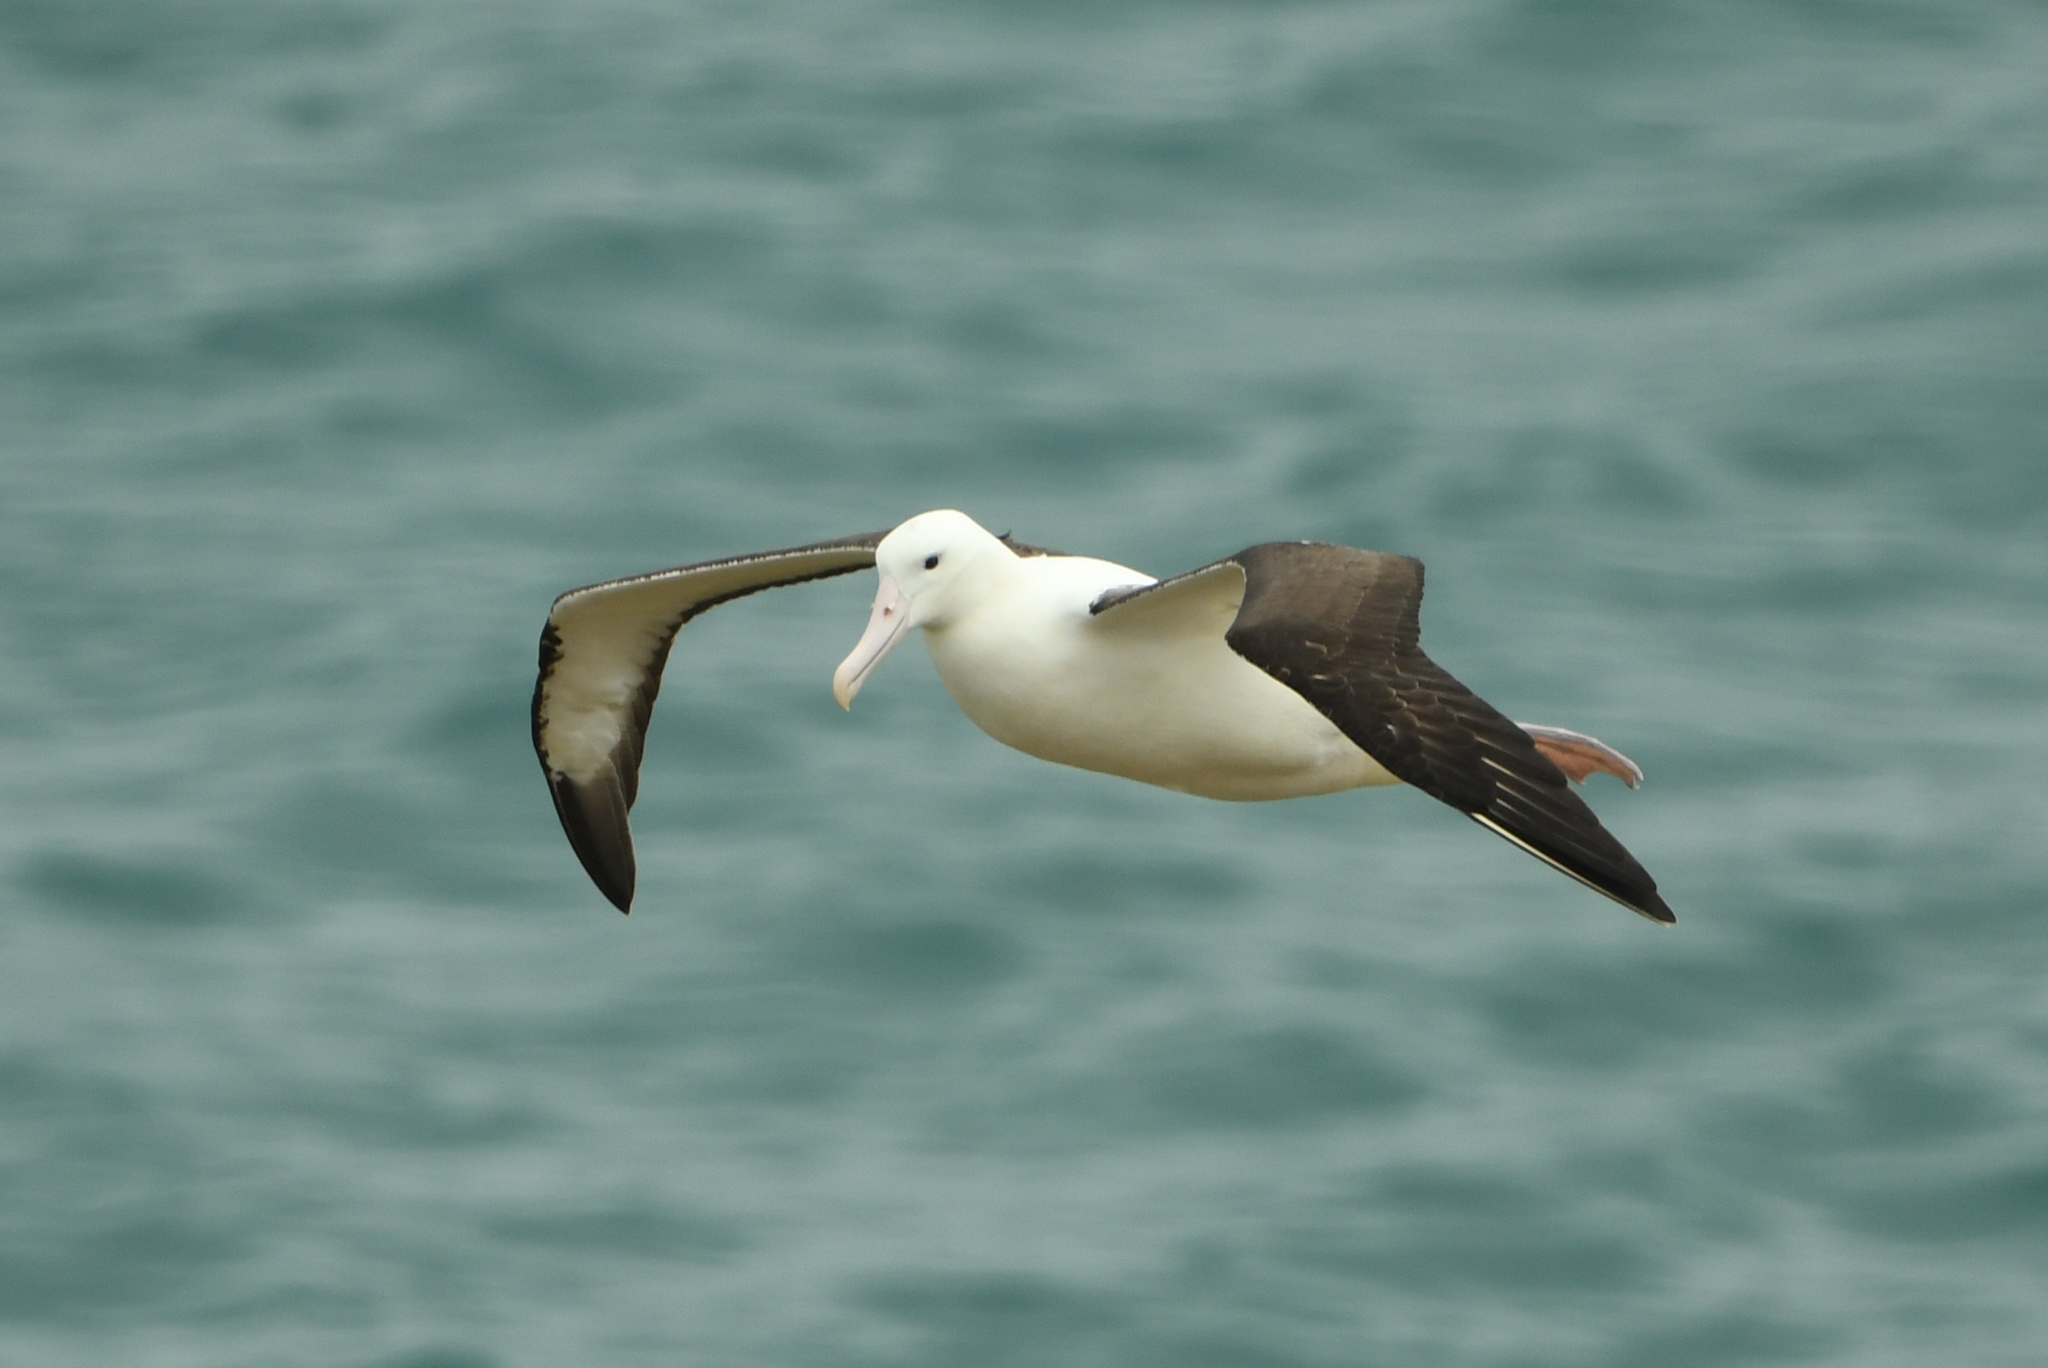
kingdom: Animalia
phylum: Chordata
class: Aves
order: Procellariiformes
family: Diomedeidae
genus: Diomedea
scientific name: Diomedea sanfordi
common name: Northern royal albatross
